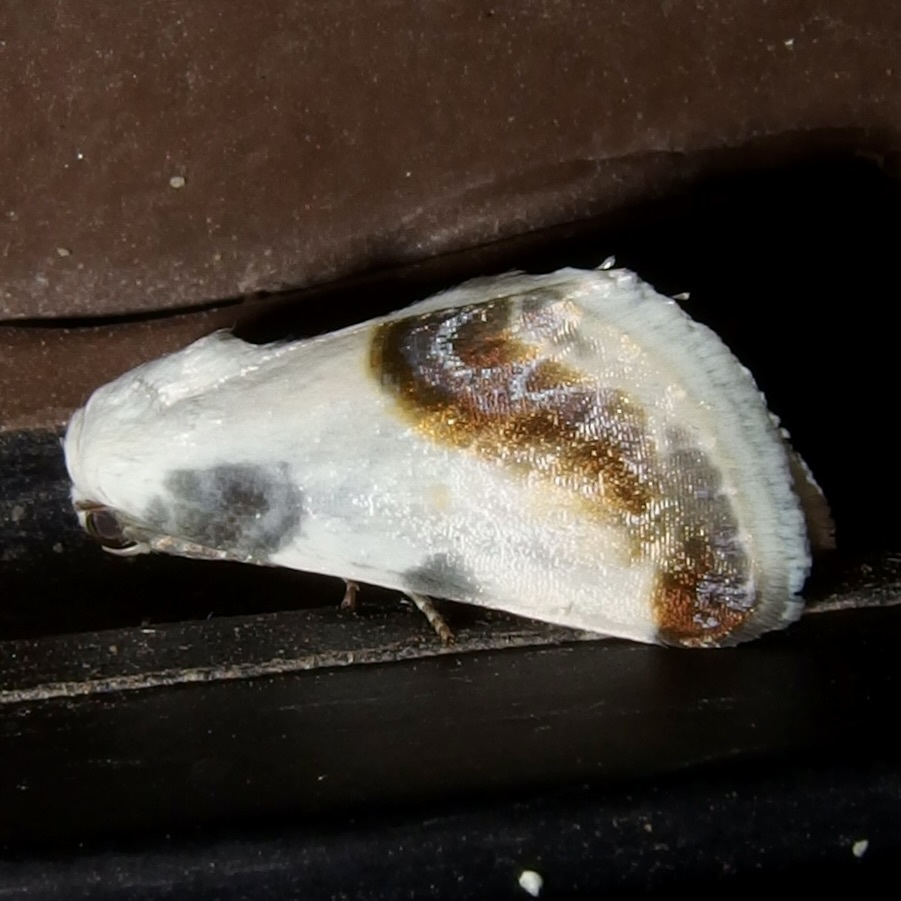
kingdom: Animalia
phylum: Arthropoda
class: Insecta
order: Lepidoptera
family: Noctuidae
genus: Acontia
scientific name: Acontia chea
